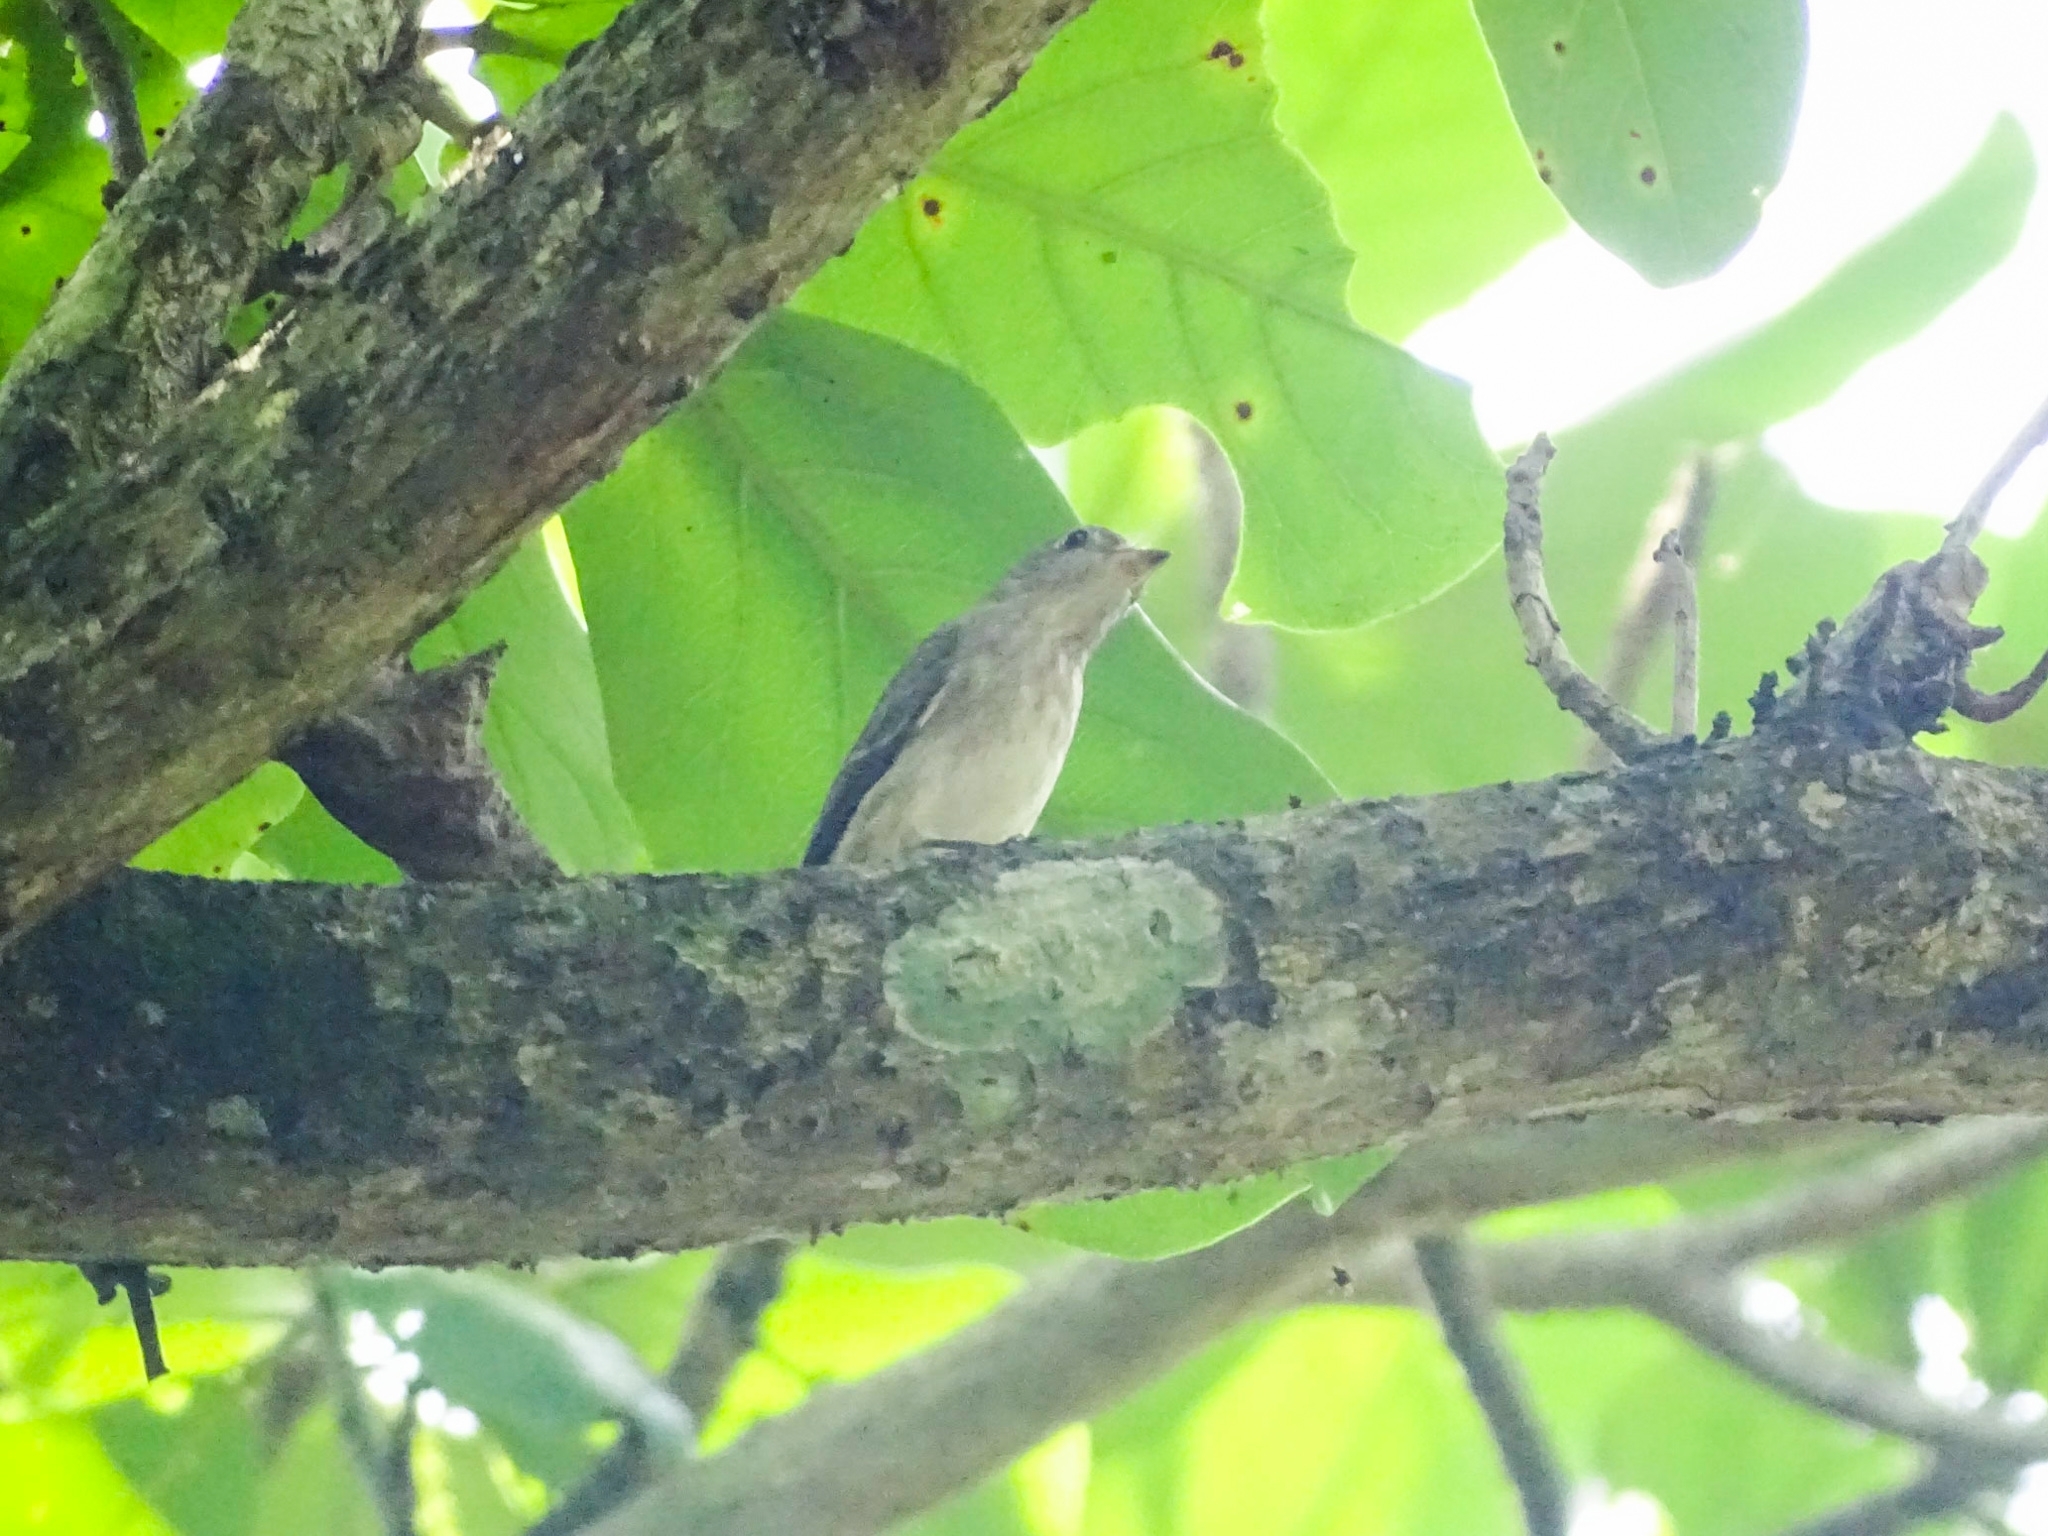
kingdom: Animalia
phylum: Chordata
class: Aves
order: Passeriformes
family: Muscicapidae
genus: Muscicapa
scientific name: Muscicapa latirostris
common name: Asian brown flycatcher
